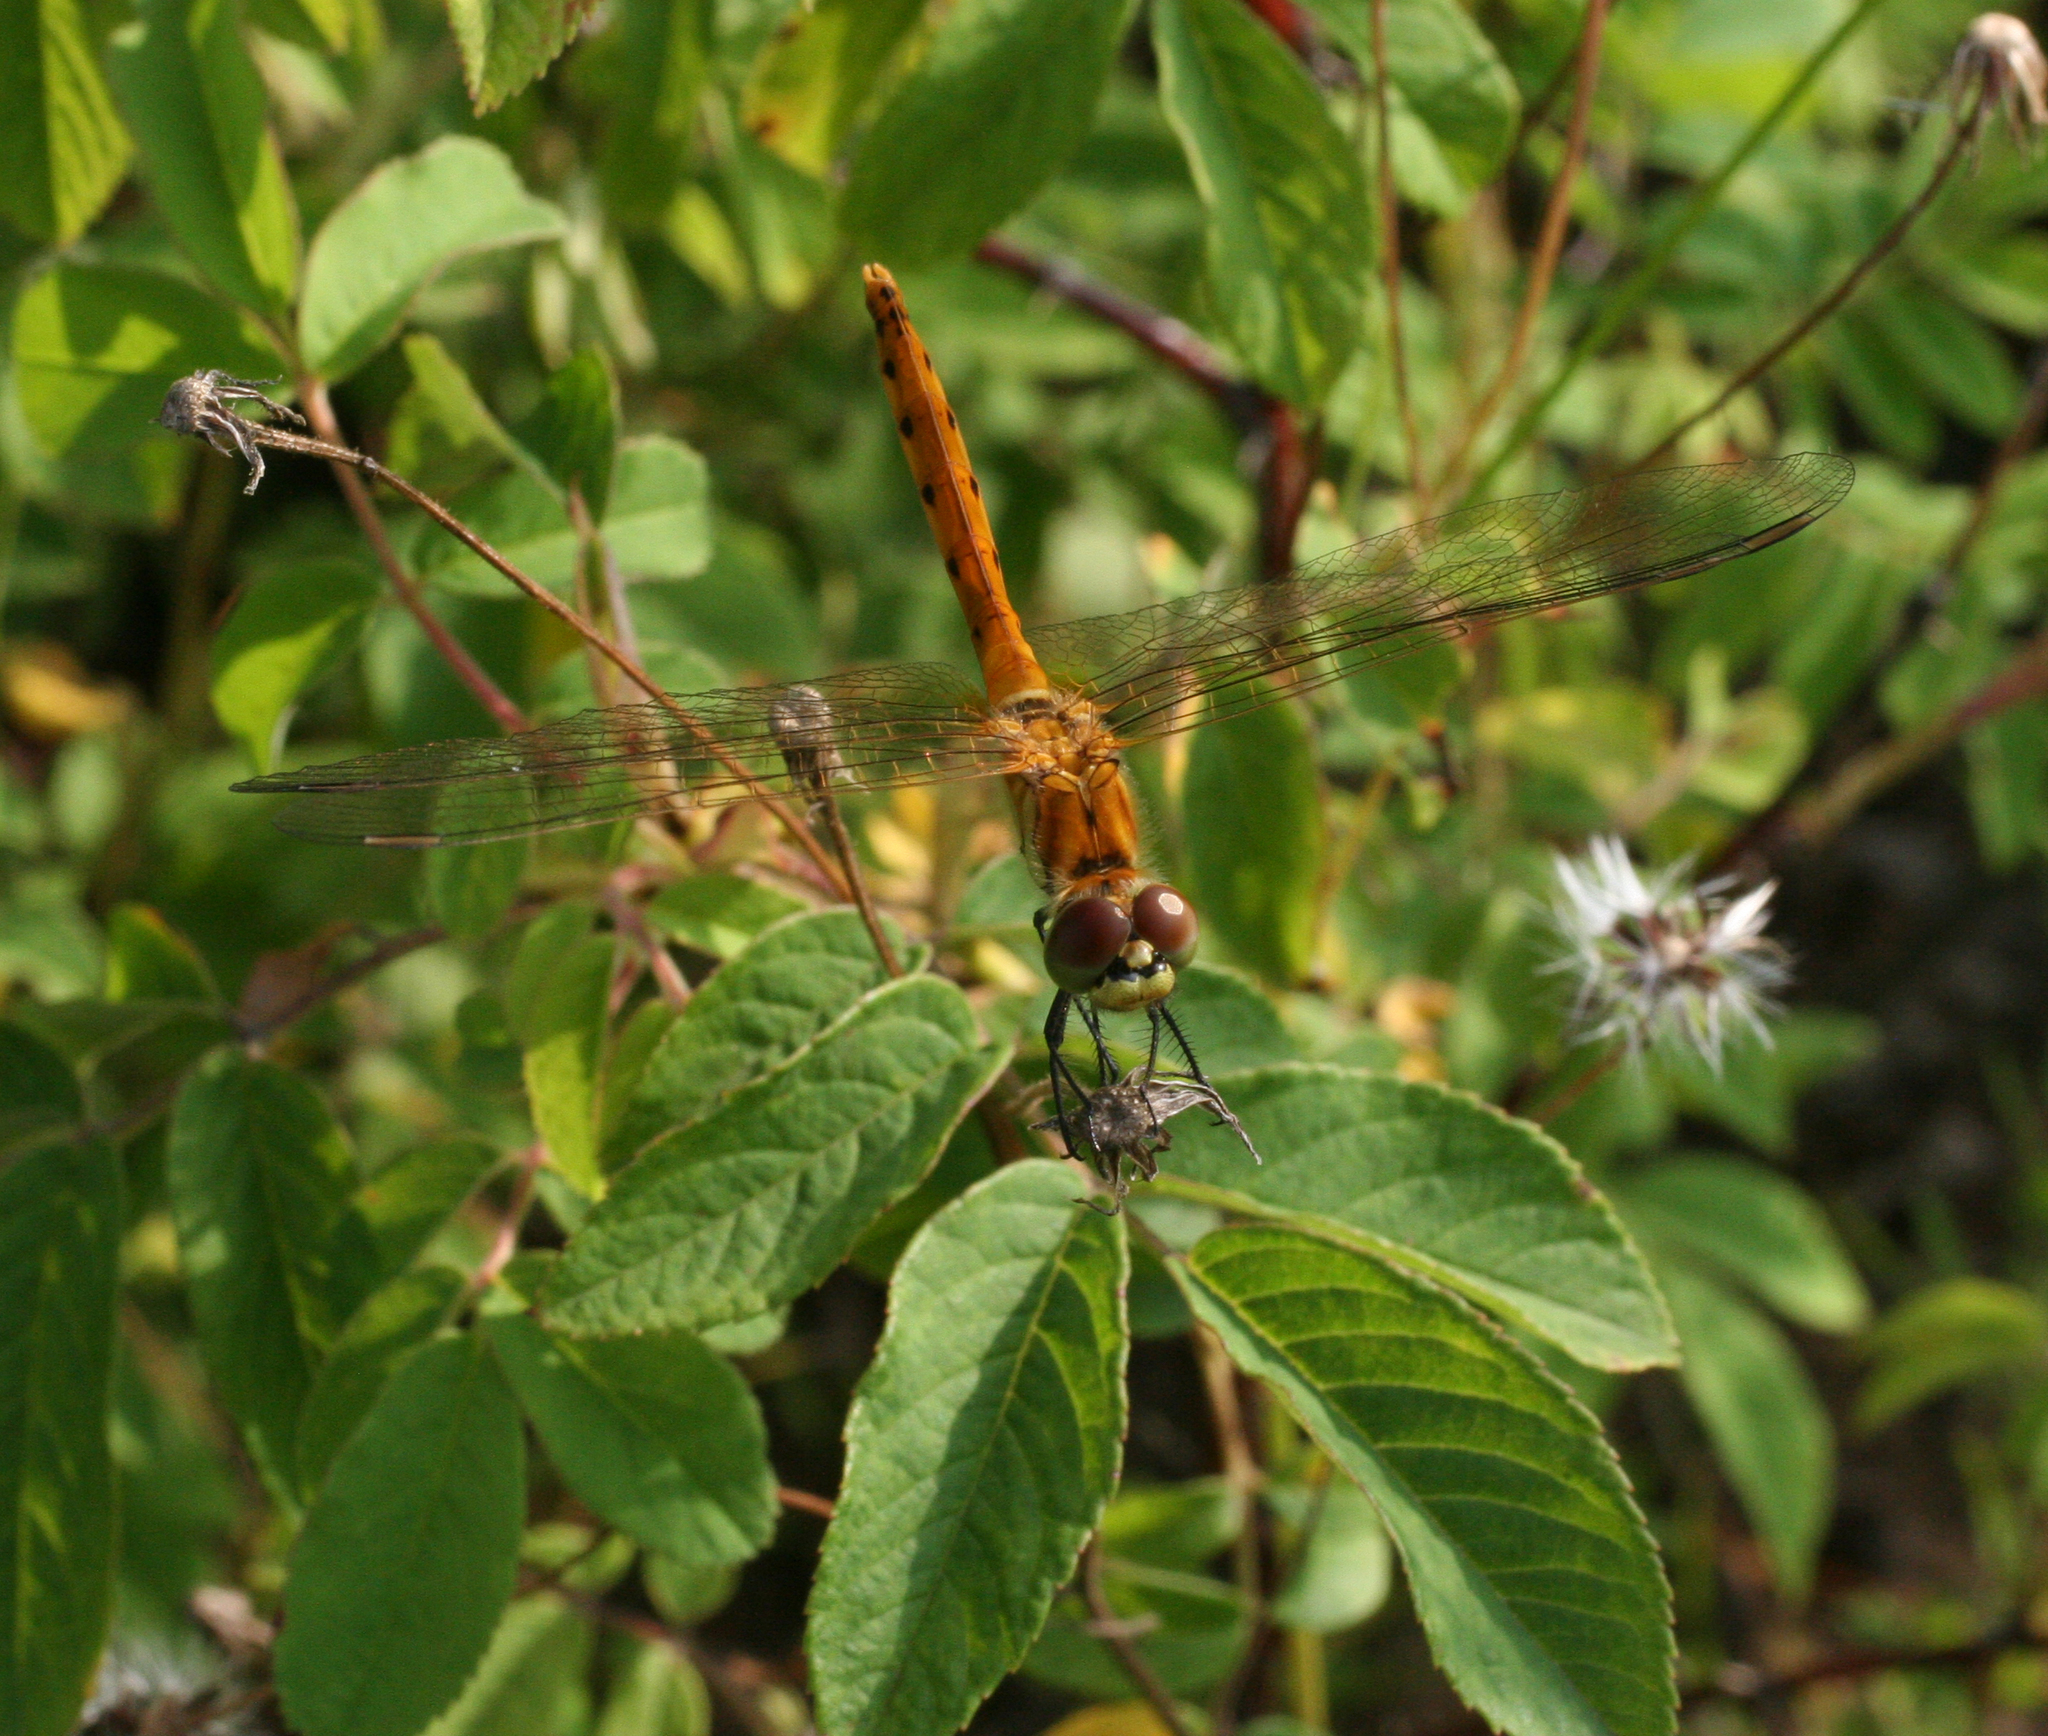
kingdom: Animalia
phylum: Arthropoda
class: Insecta
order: Odonata
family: Libellulidae
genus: Sympetrum
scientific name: Sympetrum depressiusculum
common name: Spotted darter
